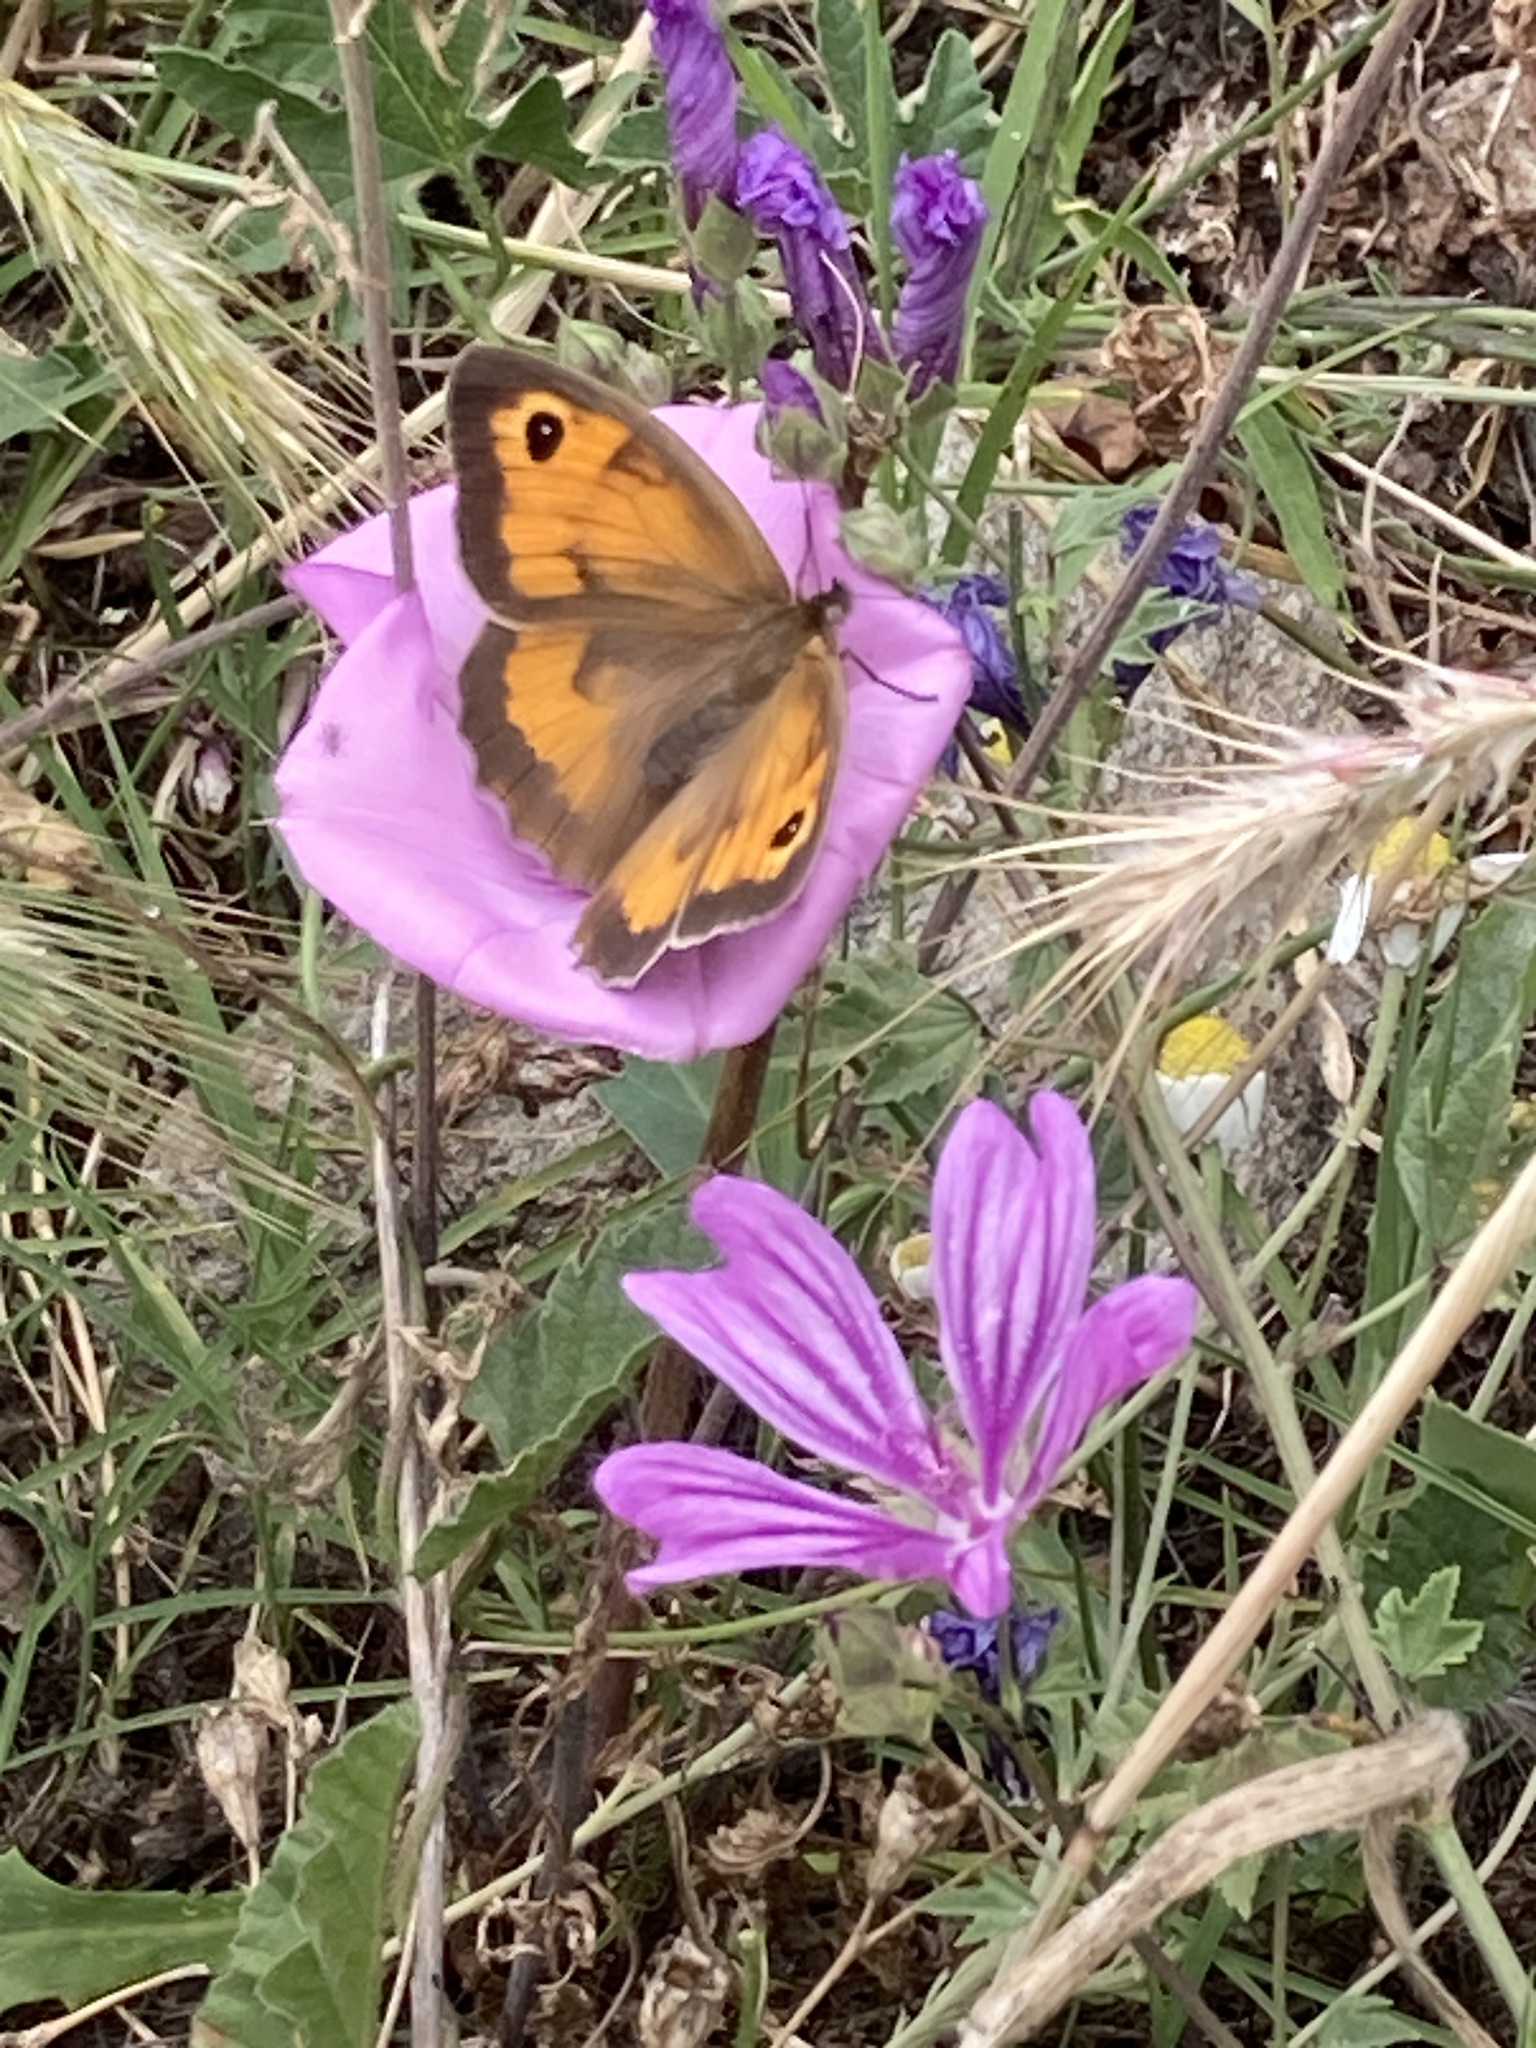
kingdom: Animalia
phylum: Arthropoda
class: Insecta
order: Lepidoptera
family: Nymphalidae
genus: Maniola
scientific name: Maniola jurtina
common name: Meadow brown
